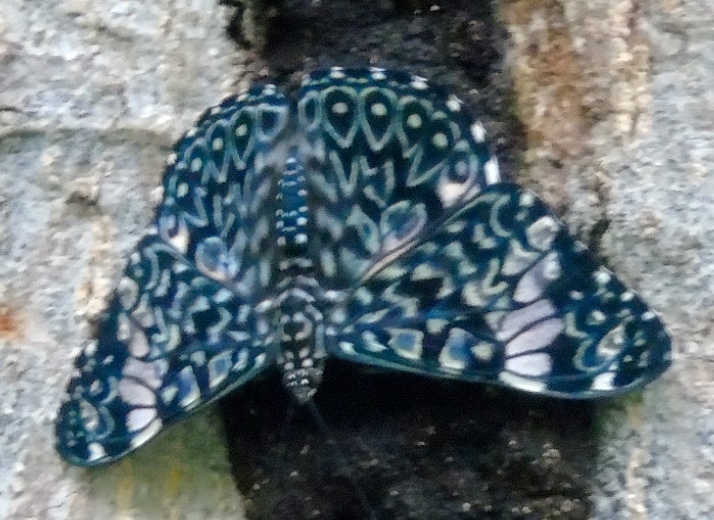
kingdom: Animalia
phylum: Arthropoda
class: Insecta
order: Lepidoptera
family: Nymphalidae
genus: Hamadryas
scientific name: Hamadryas amphinome
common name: Red cracker
